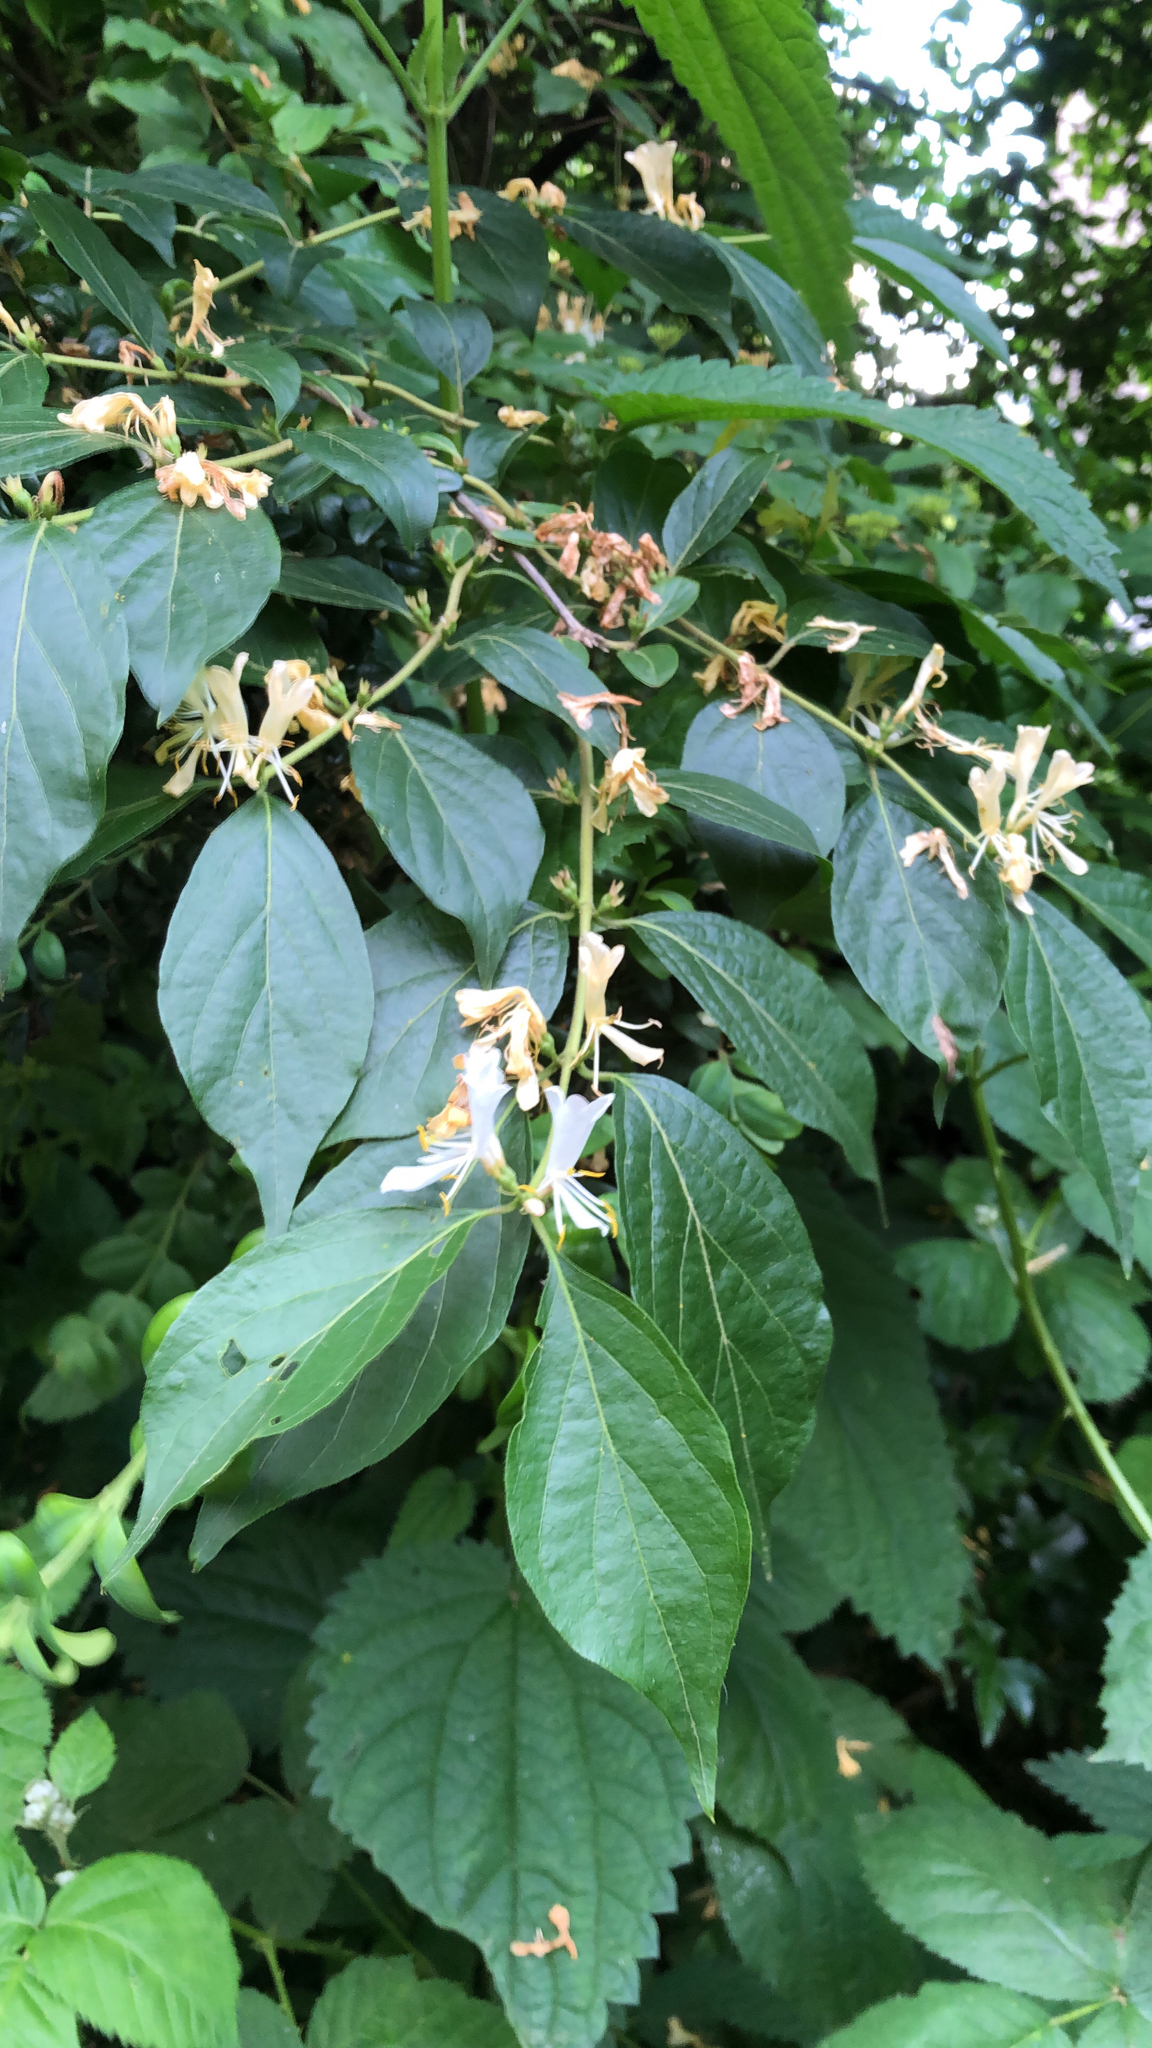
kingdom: Plantae
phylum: Tracheophyta
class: Magnoliopsida
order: Dipsacales
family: Caprifoliaceae
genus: Lonicera
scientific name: Lonicera maackii
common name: Amur honeysuckle
